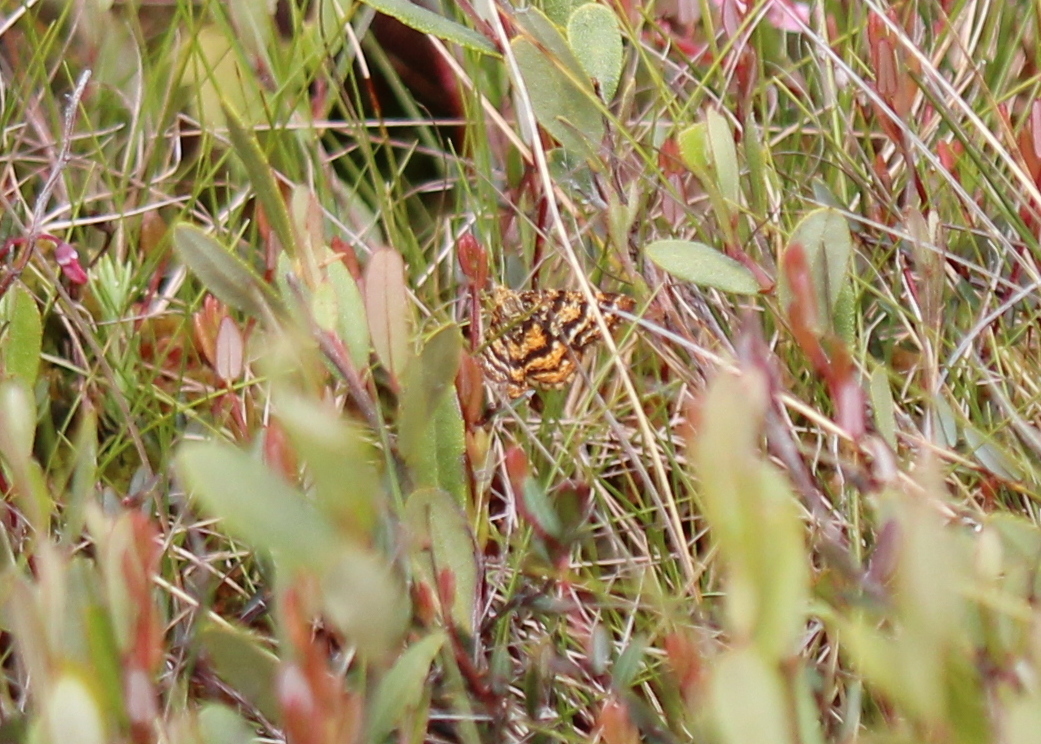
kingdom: Animalia
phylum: Arthropoda
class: Insecta
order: Lepidoptera
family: Geometridae
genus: Macaria
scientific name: Macaria truncataria
